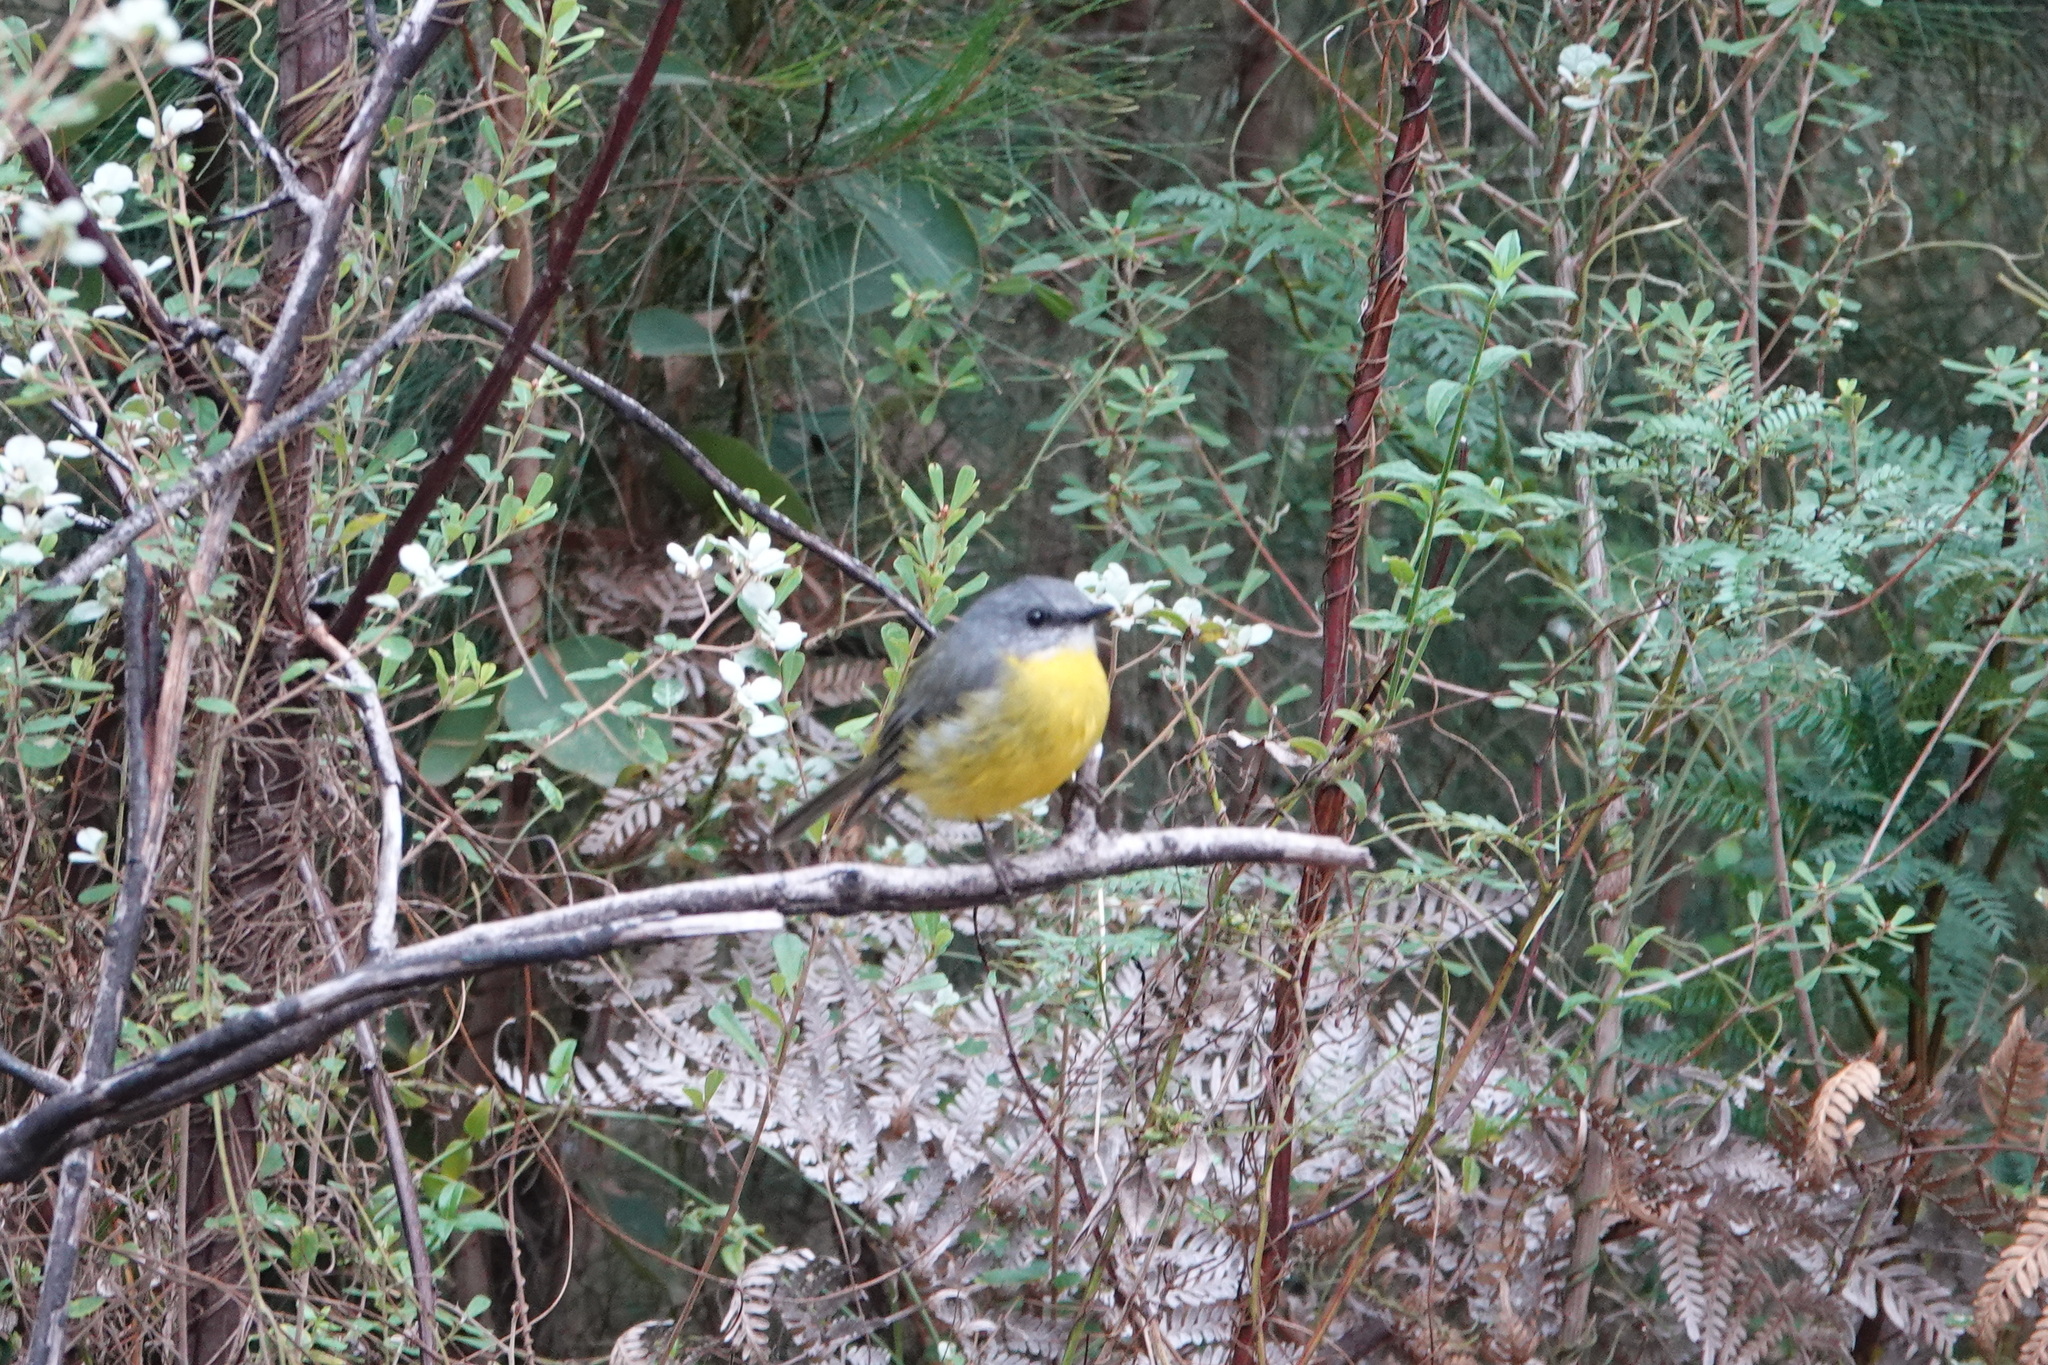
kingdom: Animalia
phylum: Chordata
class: Aves
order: Passeriformes
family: Petroicidae
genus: Eopsaltria
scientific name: Eopsaltria australis
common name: Eastern yellow robin
